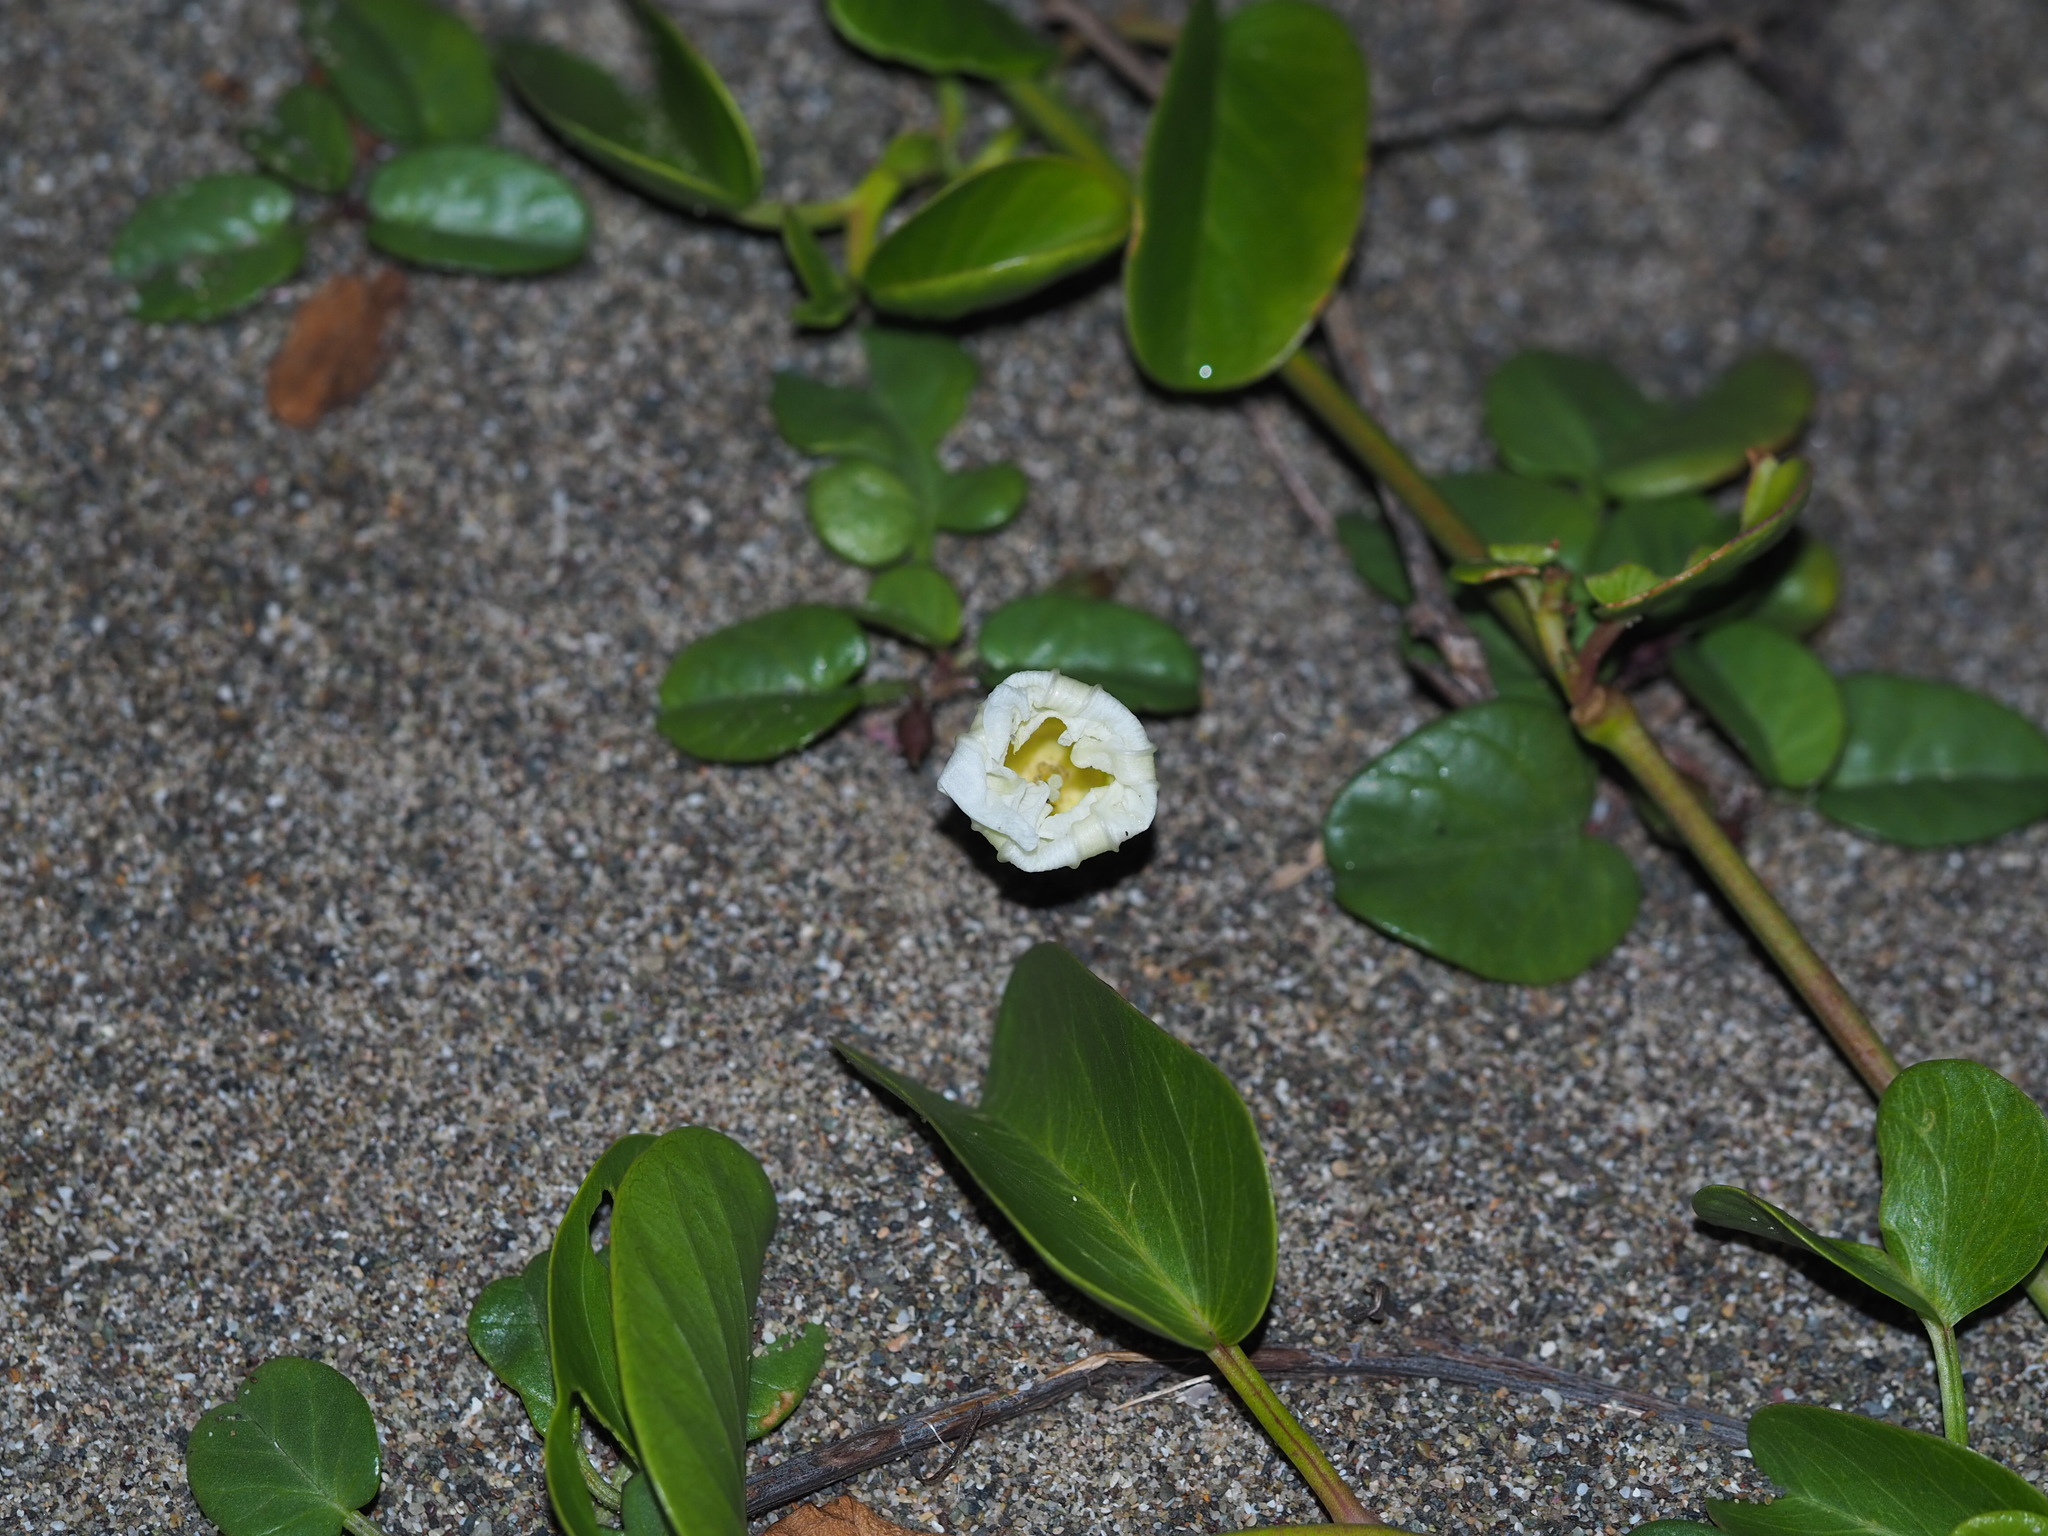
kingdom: Plantae
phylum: Tracheophyta
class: Magnoliopsida
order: Solanales
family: Convolvulaceae
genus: Ipomoea
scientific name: Ipomoea imperati
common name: Fiddle-leaf morning-glory
